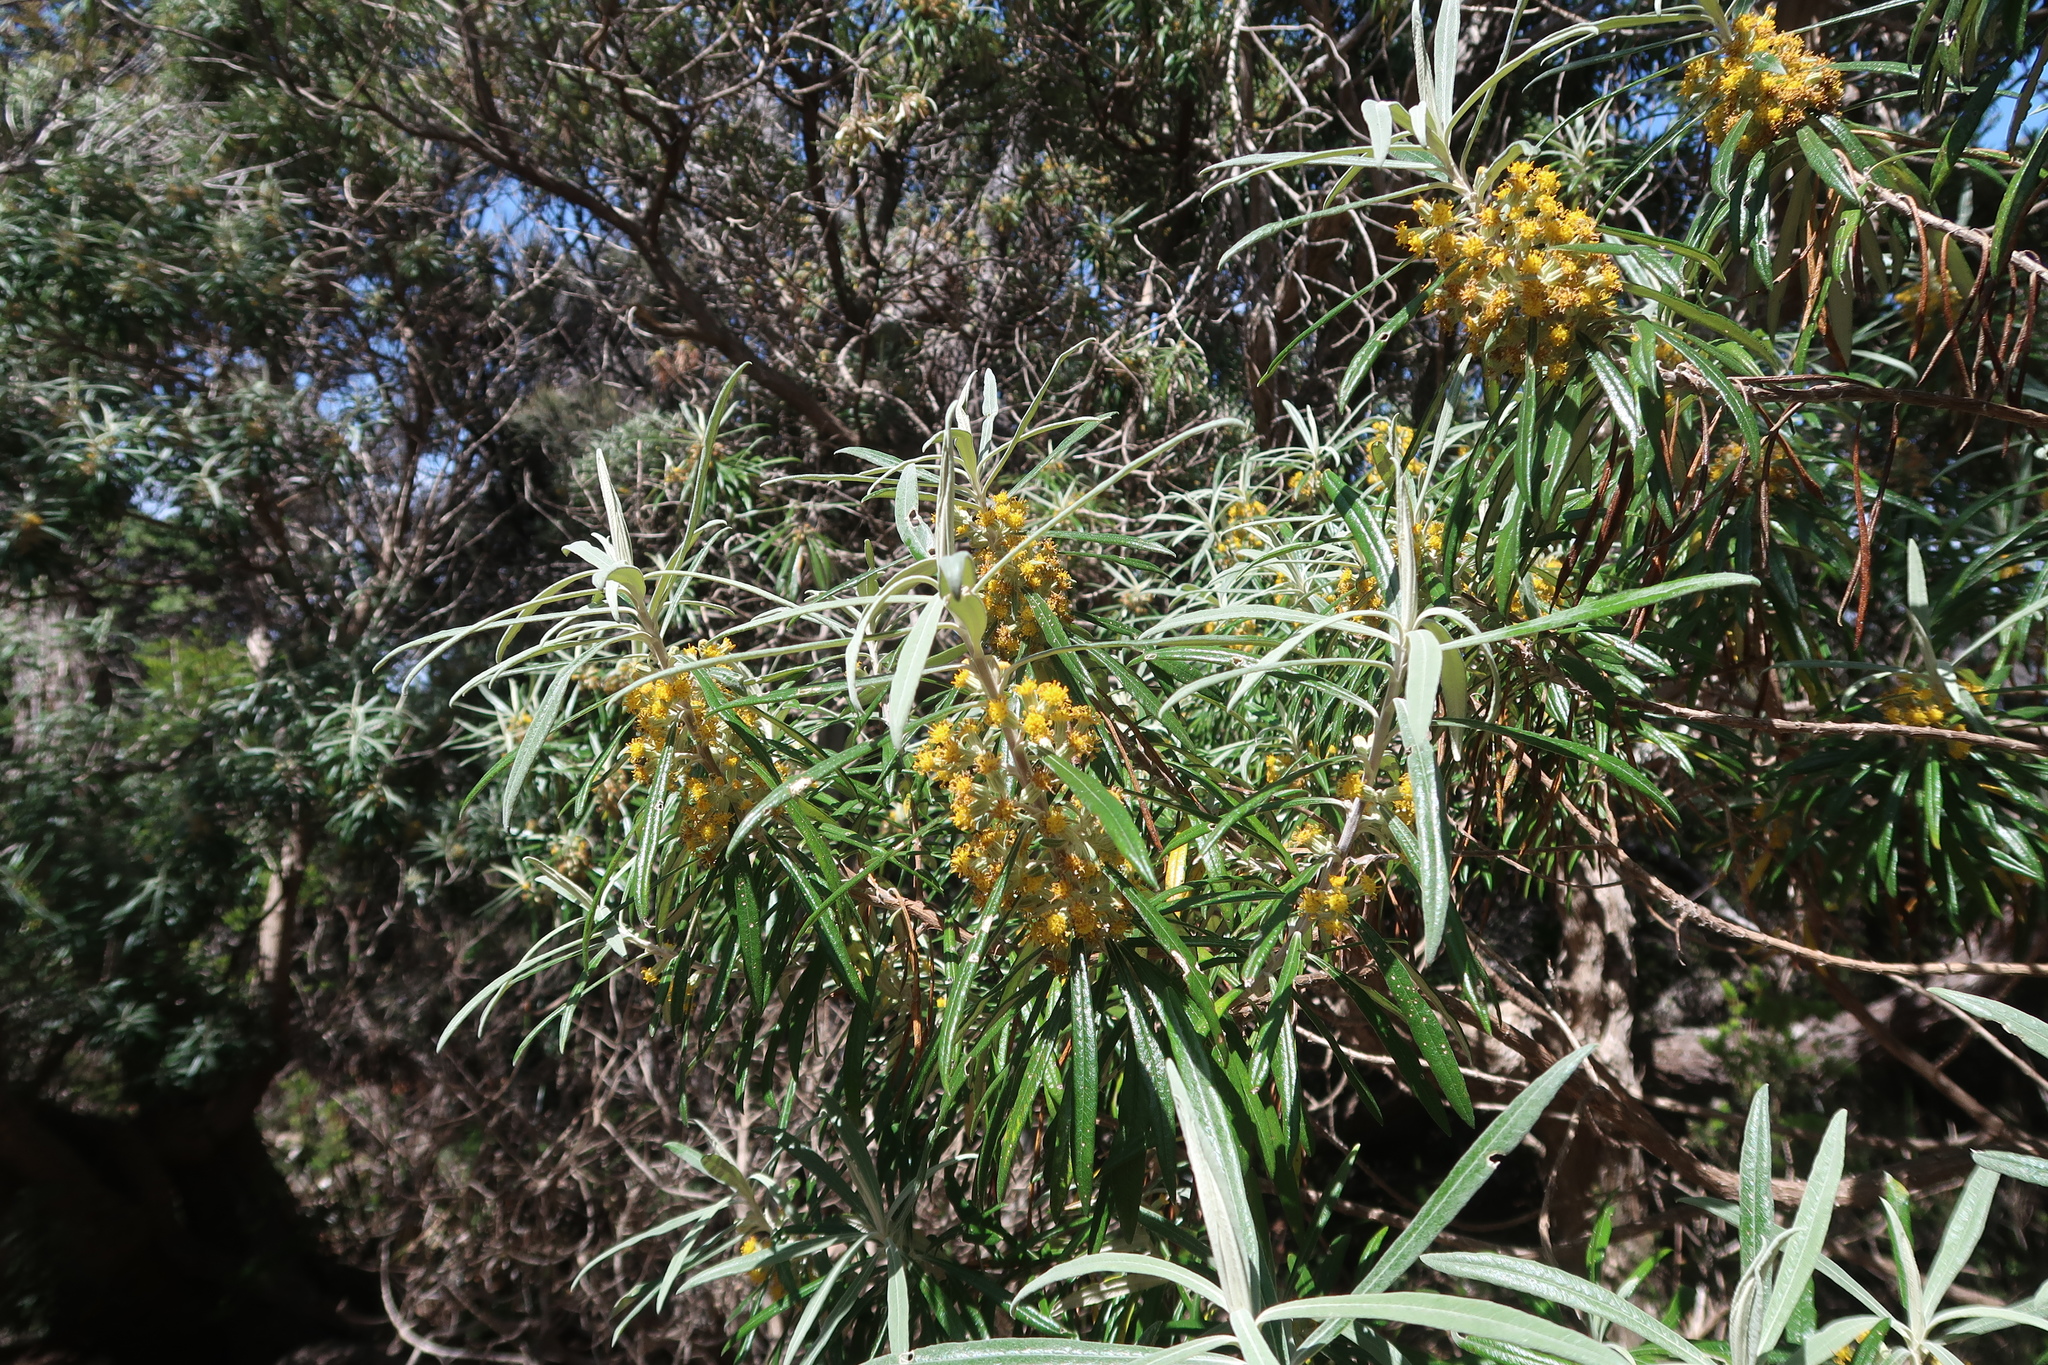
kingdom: Plantae
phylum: Tracheophyta
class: Magnoliopsida
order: Asterales
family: Asteraceae
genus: Bedfordia
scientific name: Bedfordia salicina
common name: Blanketleaf
